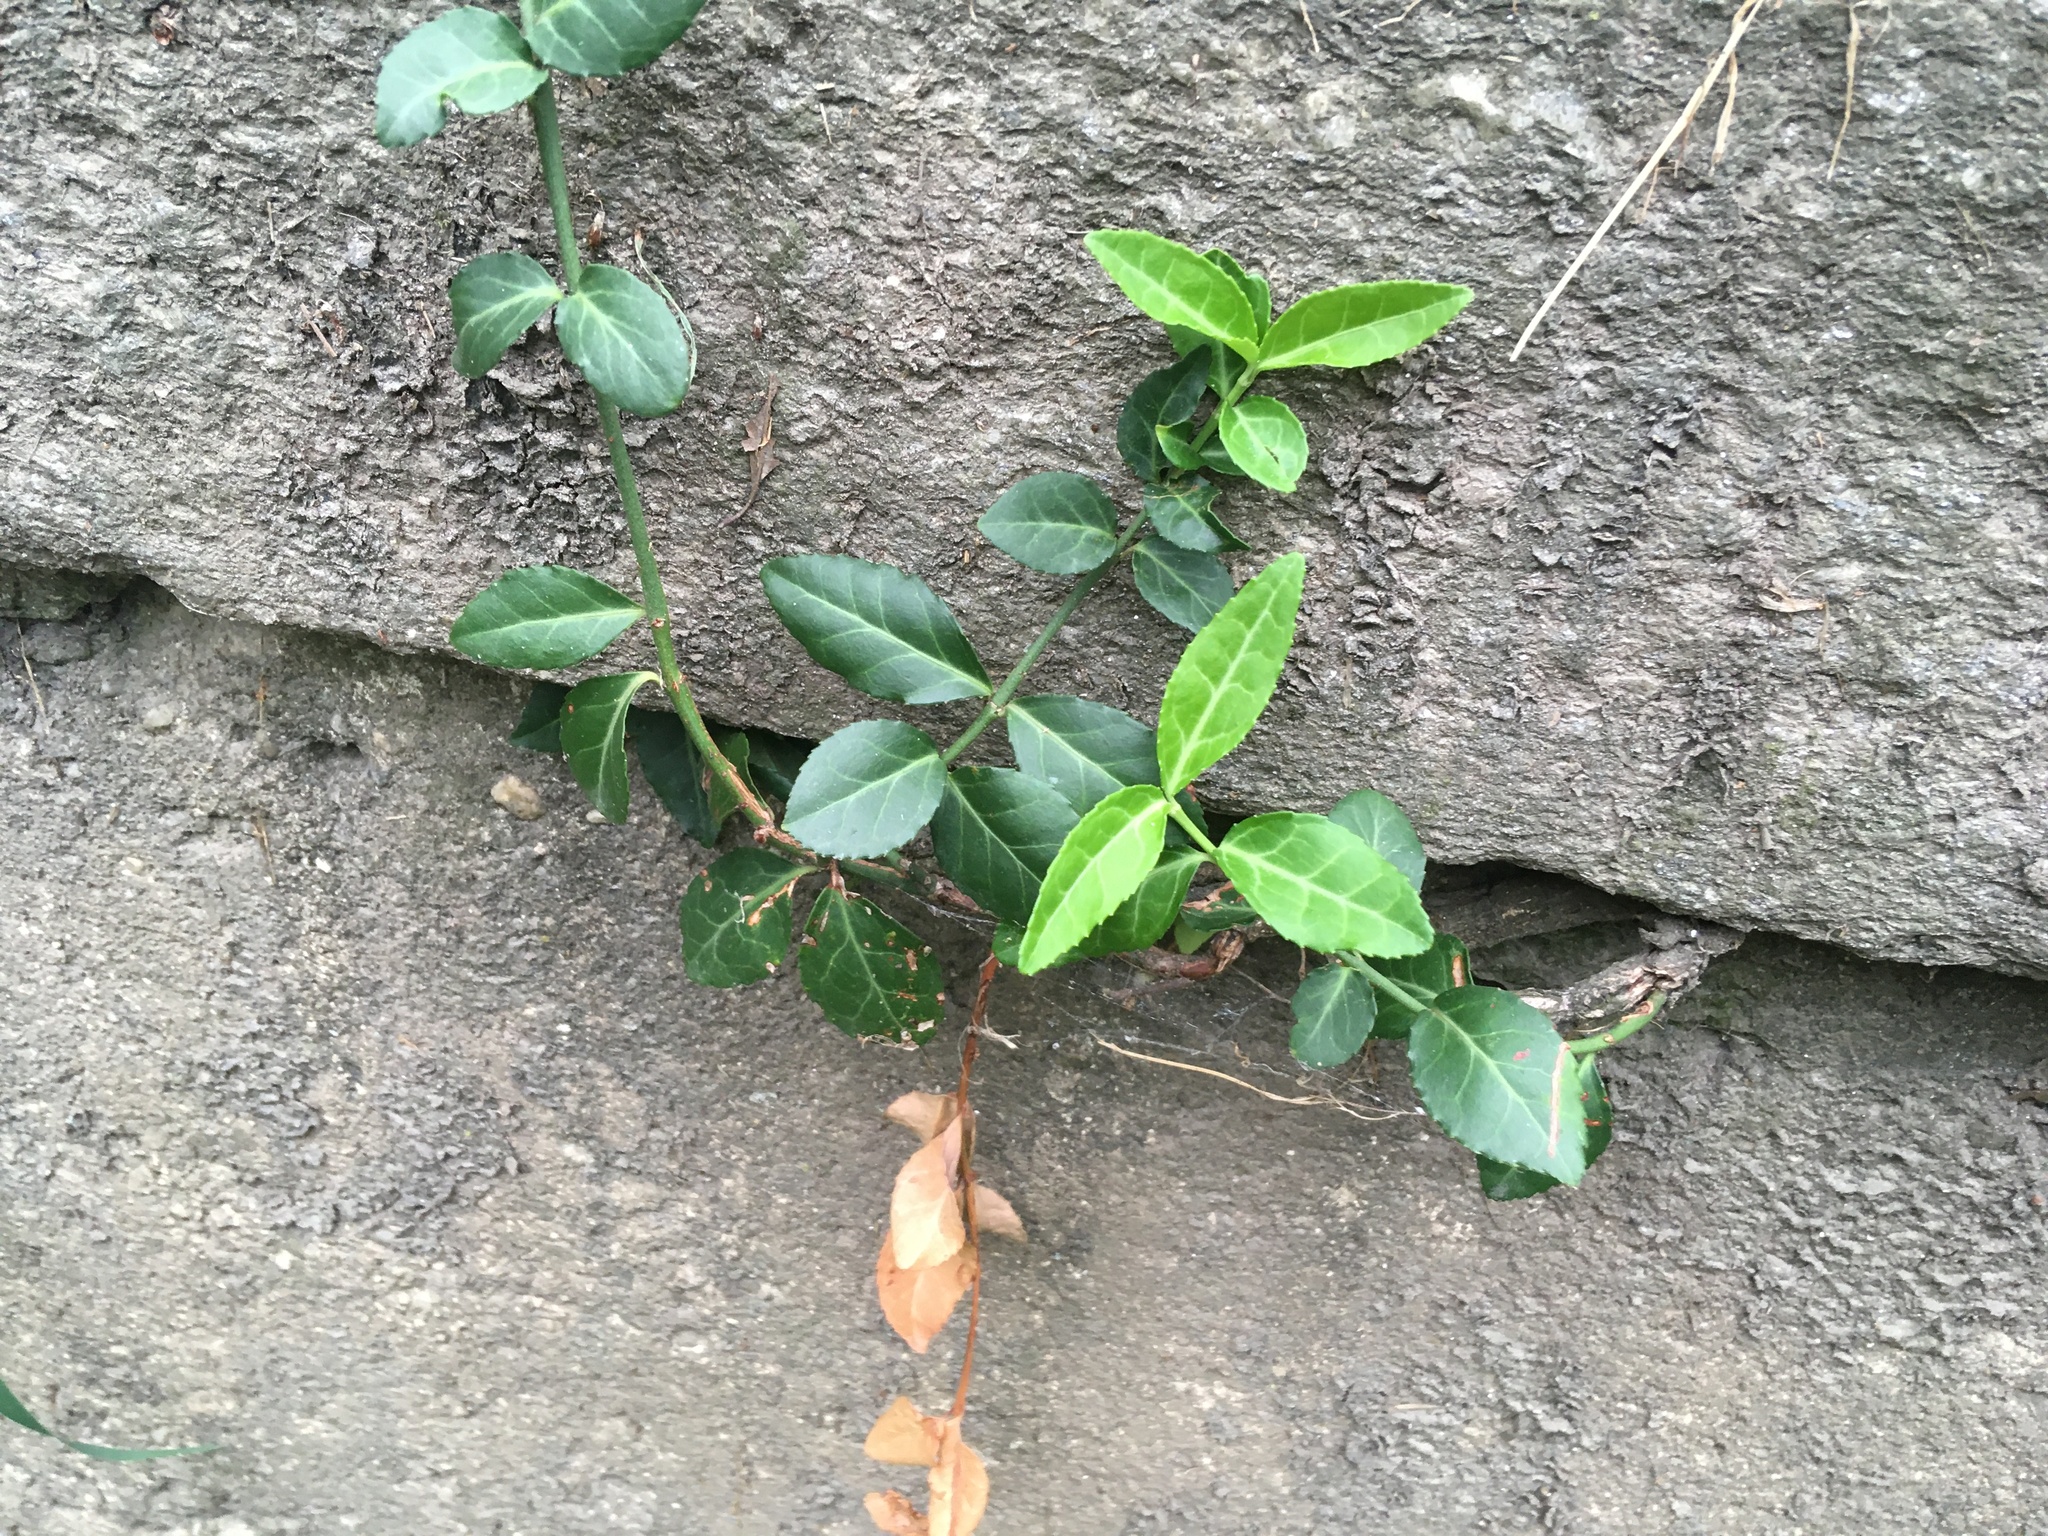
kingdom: Plantae
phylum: Tracheophyta
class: Magnoliopsida
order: Celastrales
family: Celastraceae
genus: Euonymus
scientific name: Euonymus fortunei
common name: Climbing euonymus
